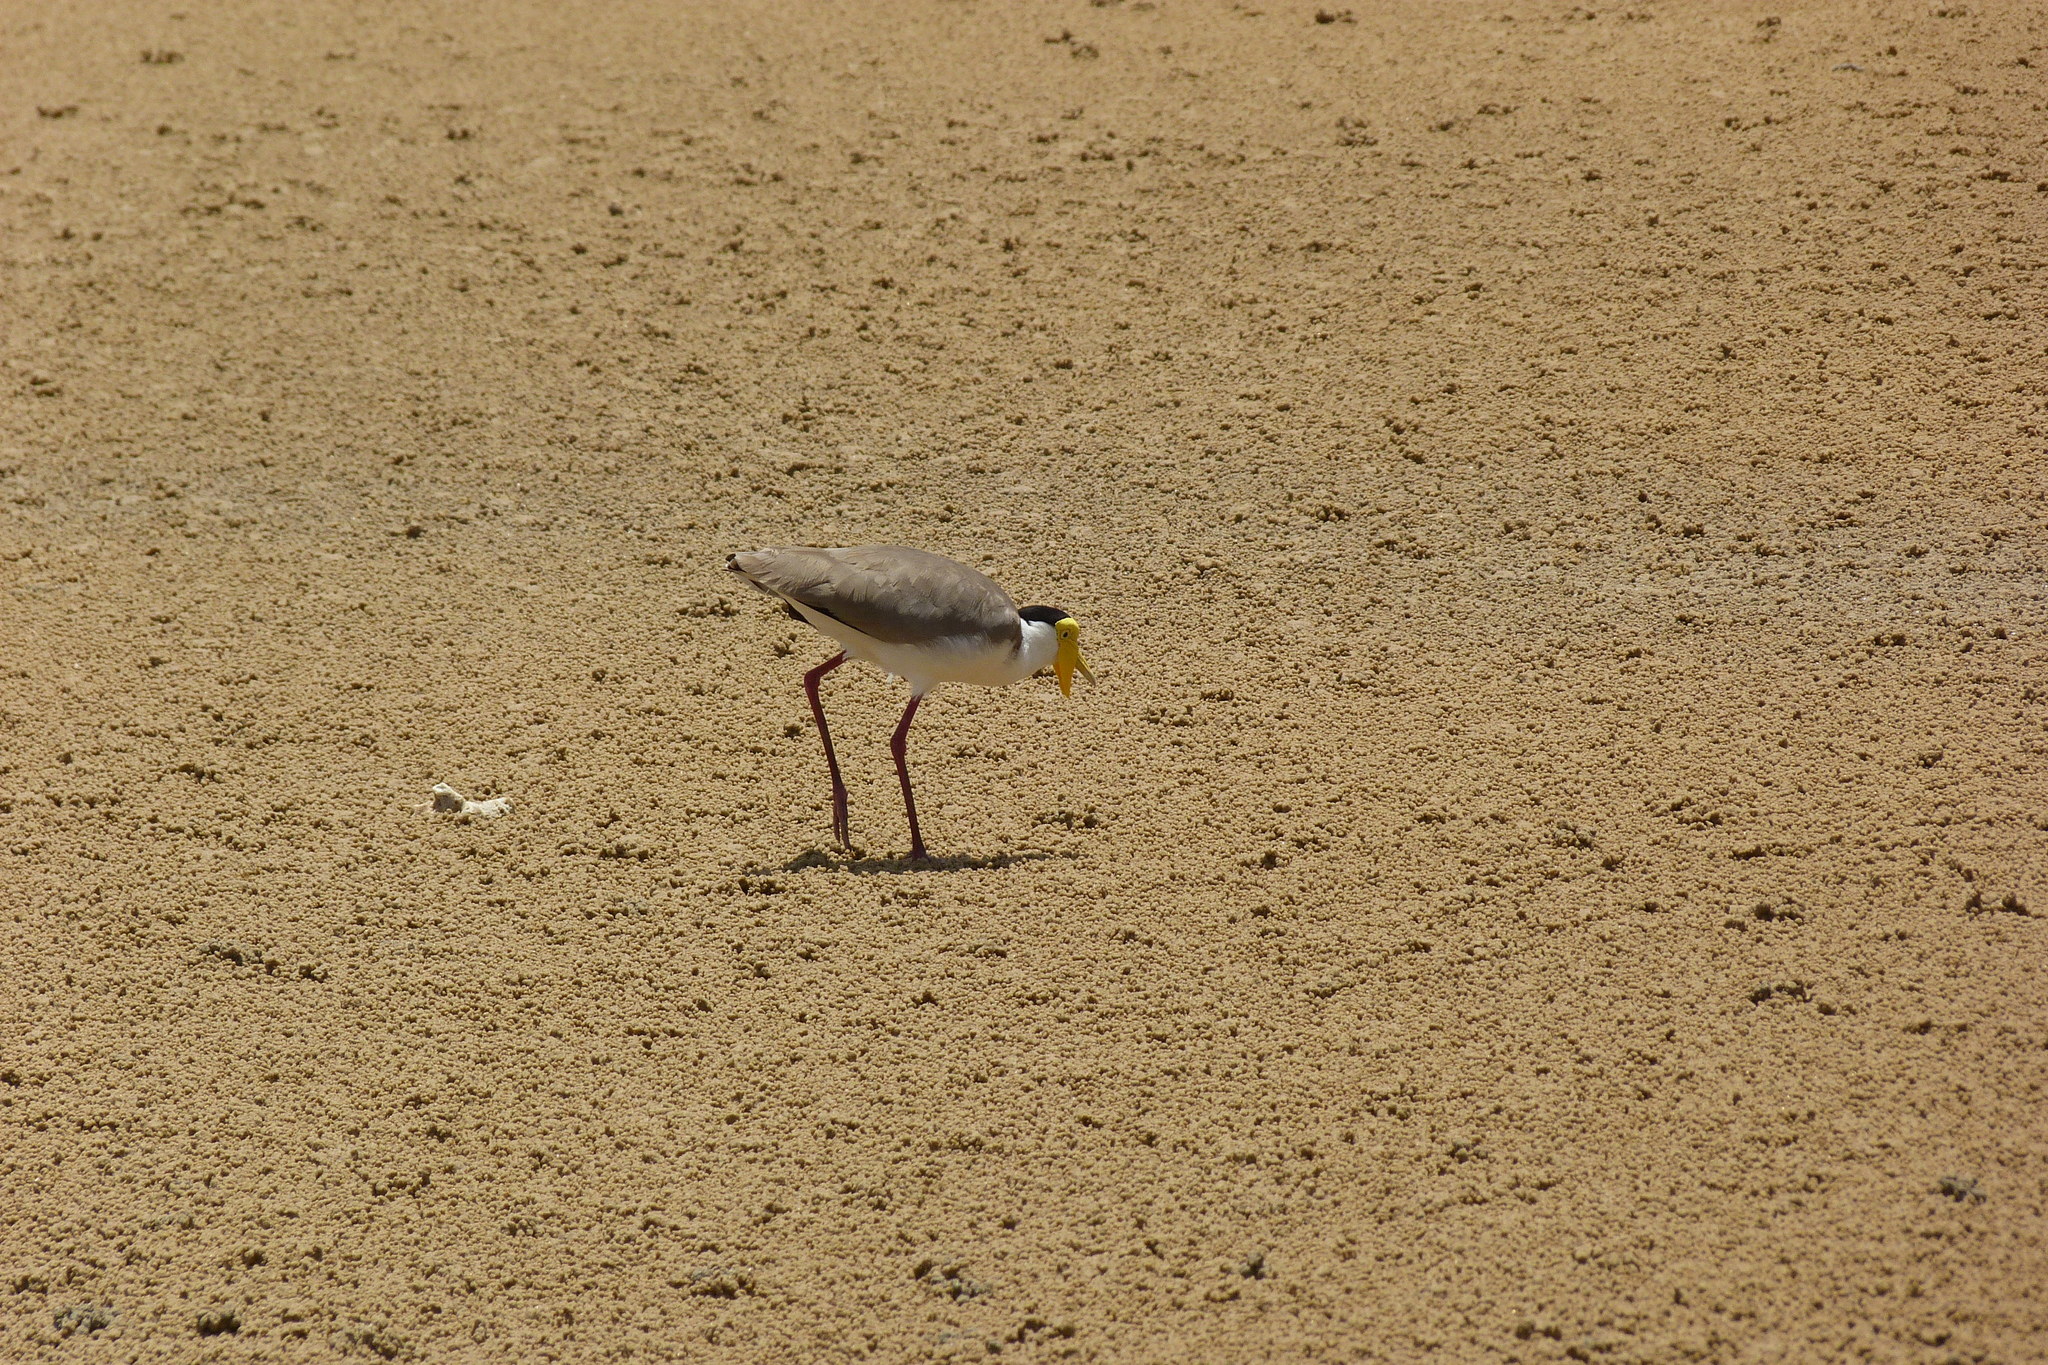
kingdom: Animalia
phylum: Chordata
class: Aves
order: Charadriiformes
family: Charadriidae
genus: Vanellus
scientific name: Vanellus miles
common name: Masked lapwing
